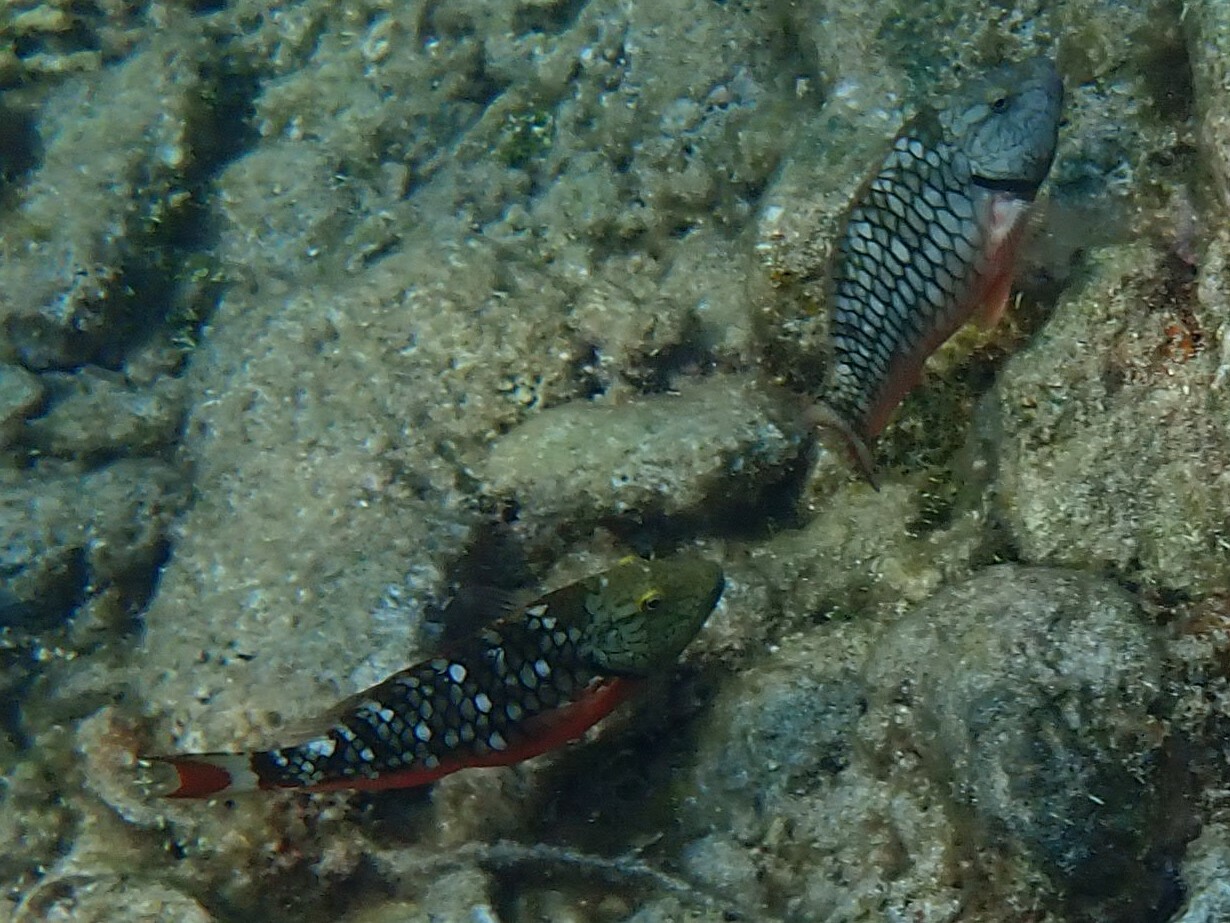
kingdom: Animalia
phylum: Chordata
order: Perciformes
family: Scaridae
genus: Sparisoma
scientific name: Sparisoma viride
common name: Stoplight parrotfish
